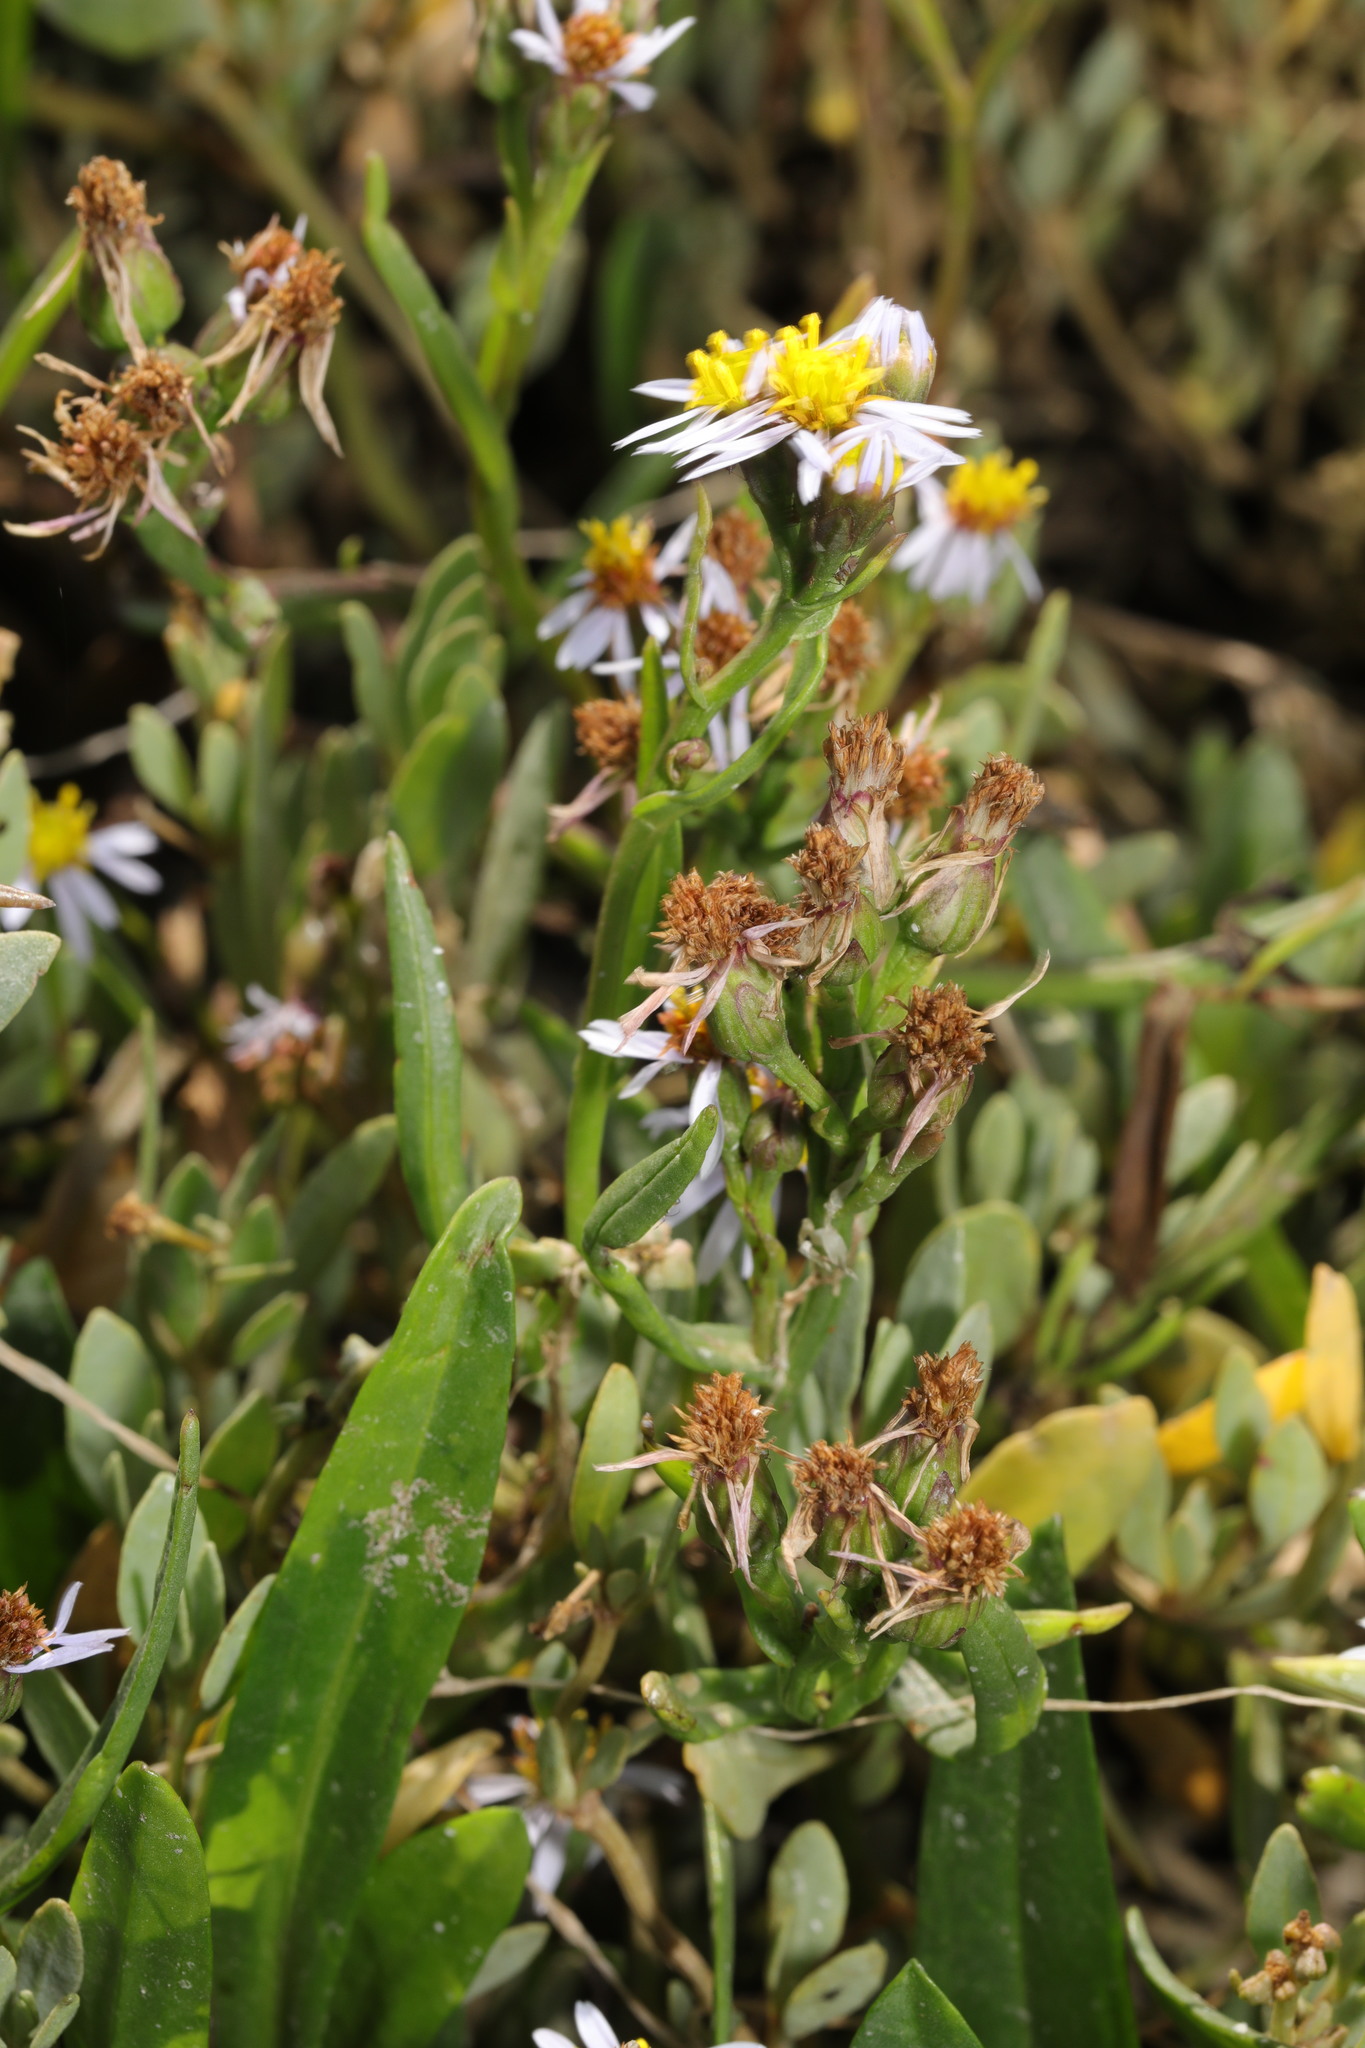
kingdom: Plantae
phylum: Tracheophyta
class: Magnoliopsida
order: Asterales
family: Asteraceae
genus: Tripolium
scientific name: Tripolium pannonicum
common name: Sea aster
